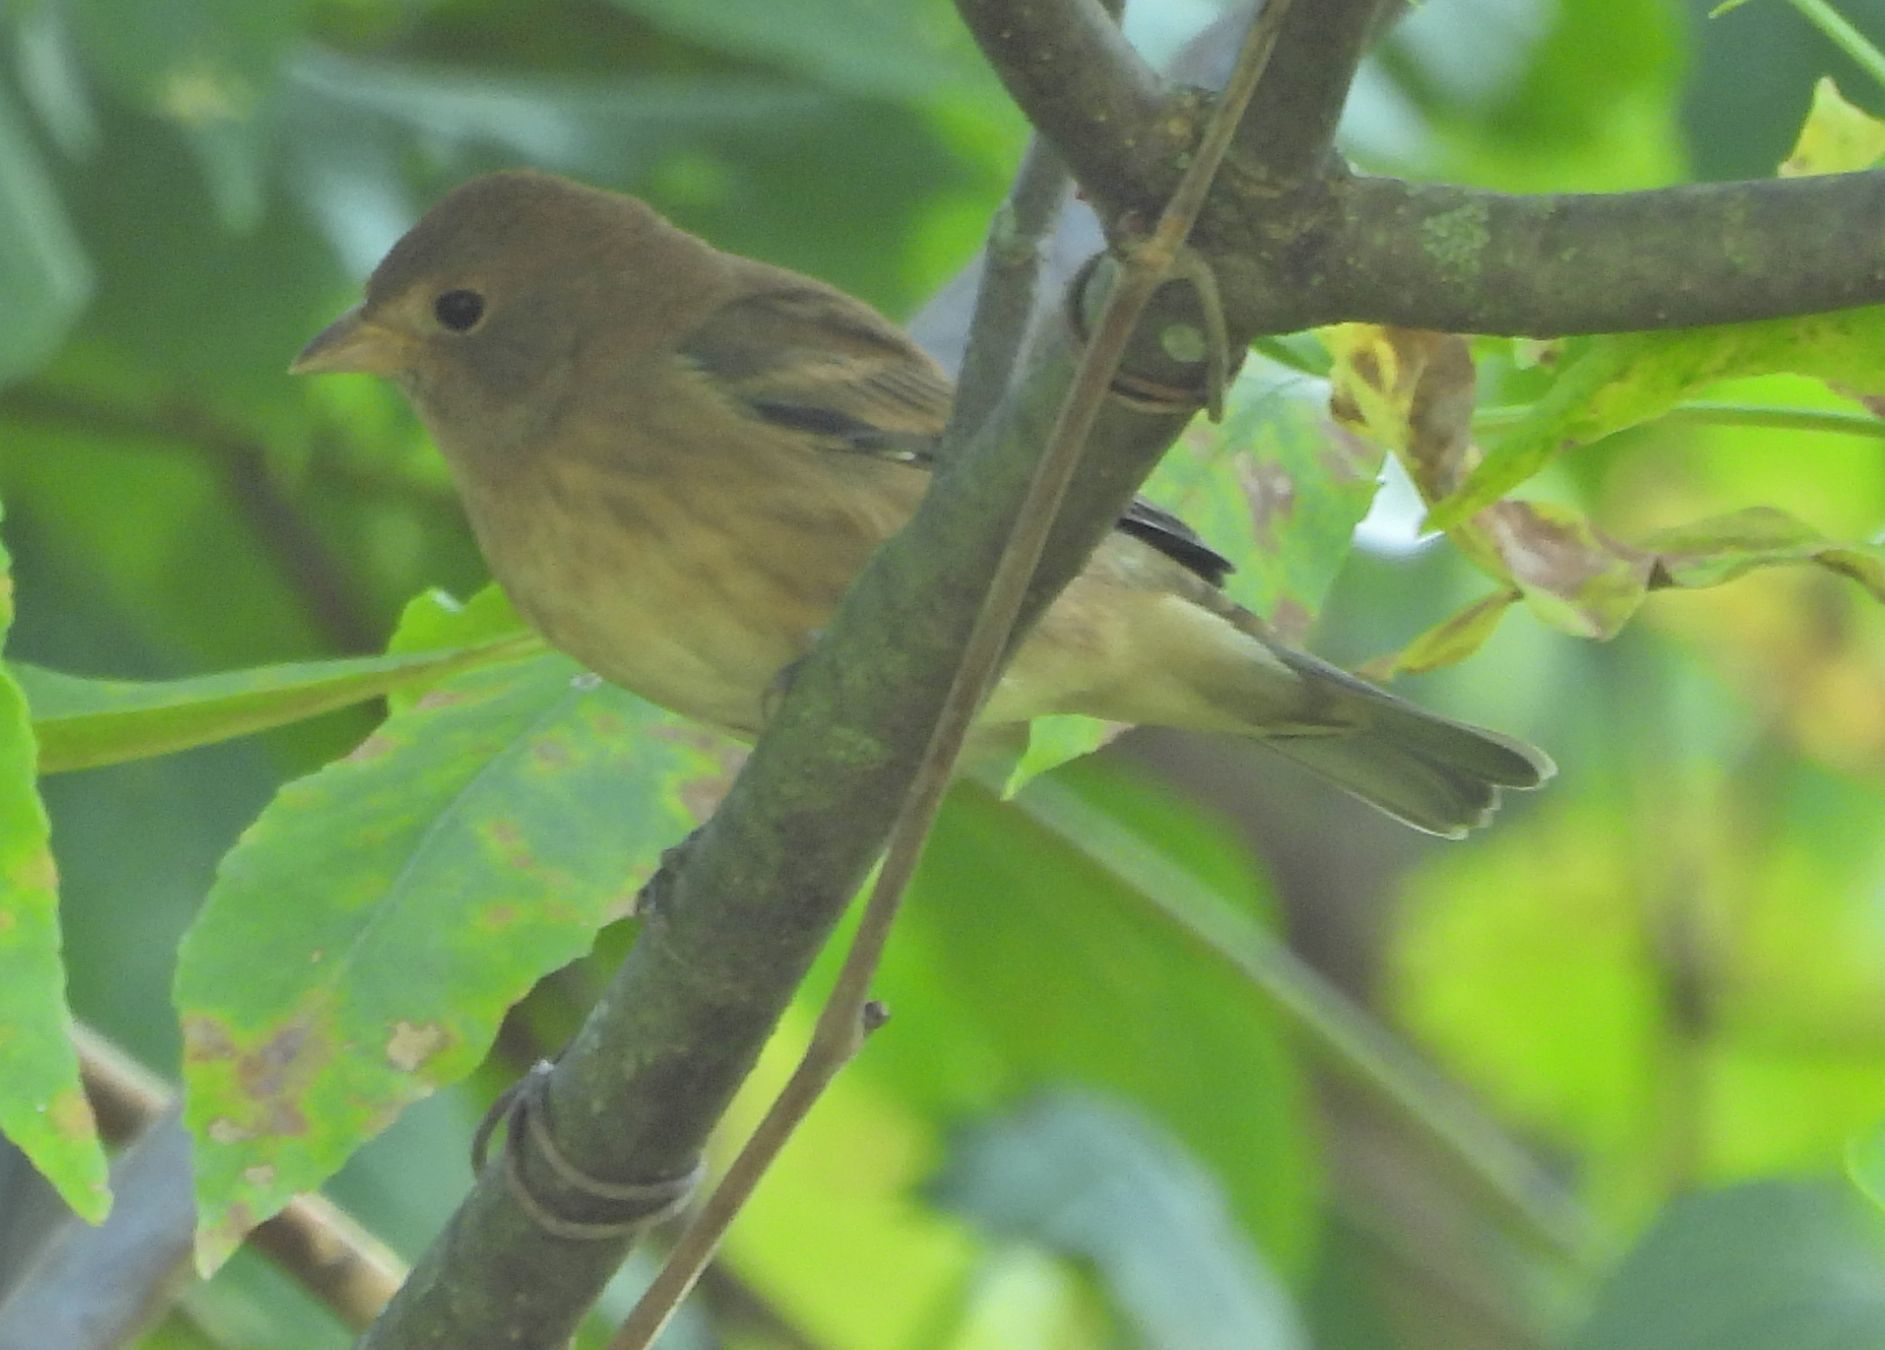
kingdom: Animalia
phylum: Chordata
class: Aves
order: Passeriformes
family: Cardinalidae
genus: Passerina
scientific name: Passerina cyanea
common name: Indigo bunting
